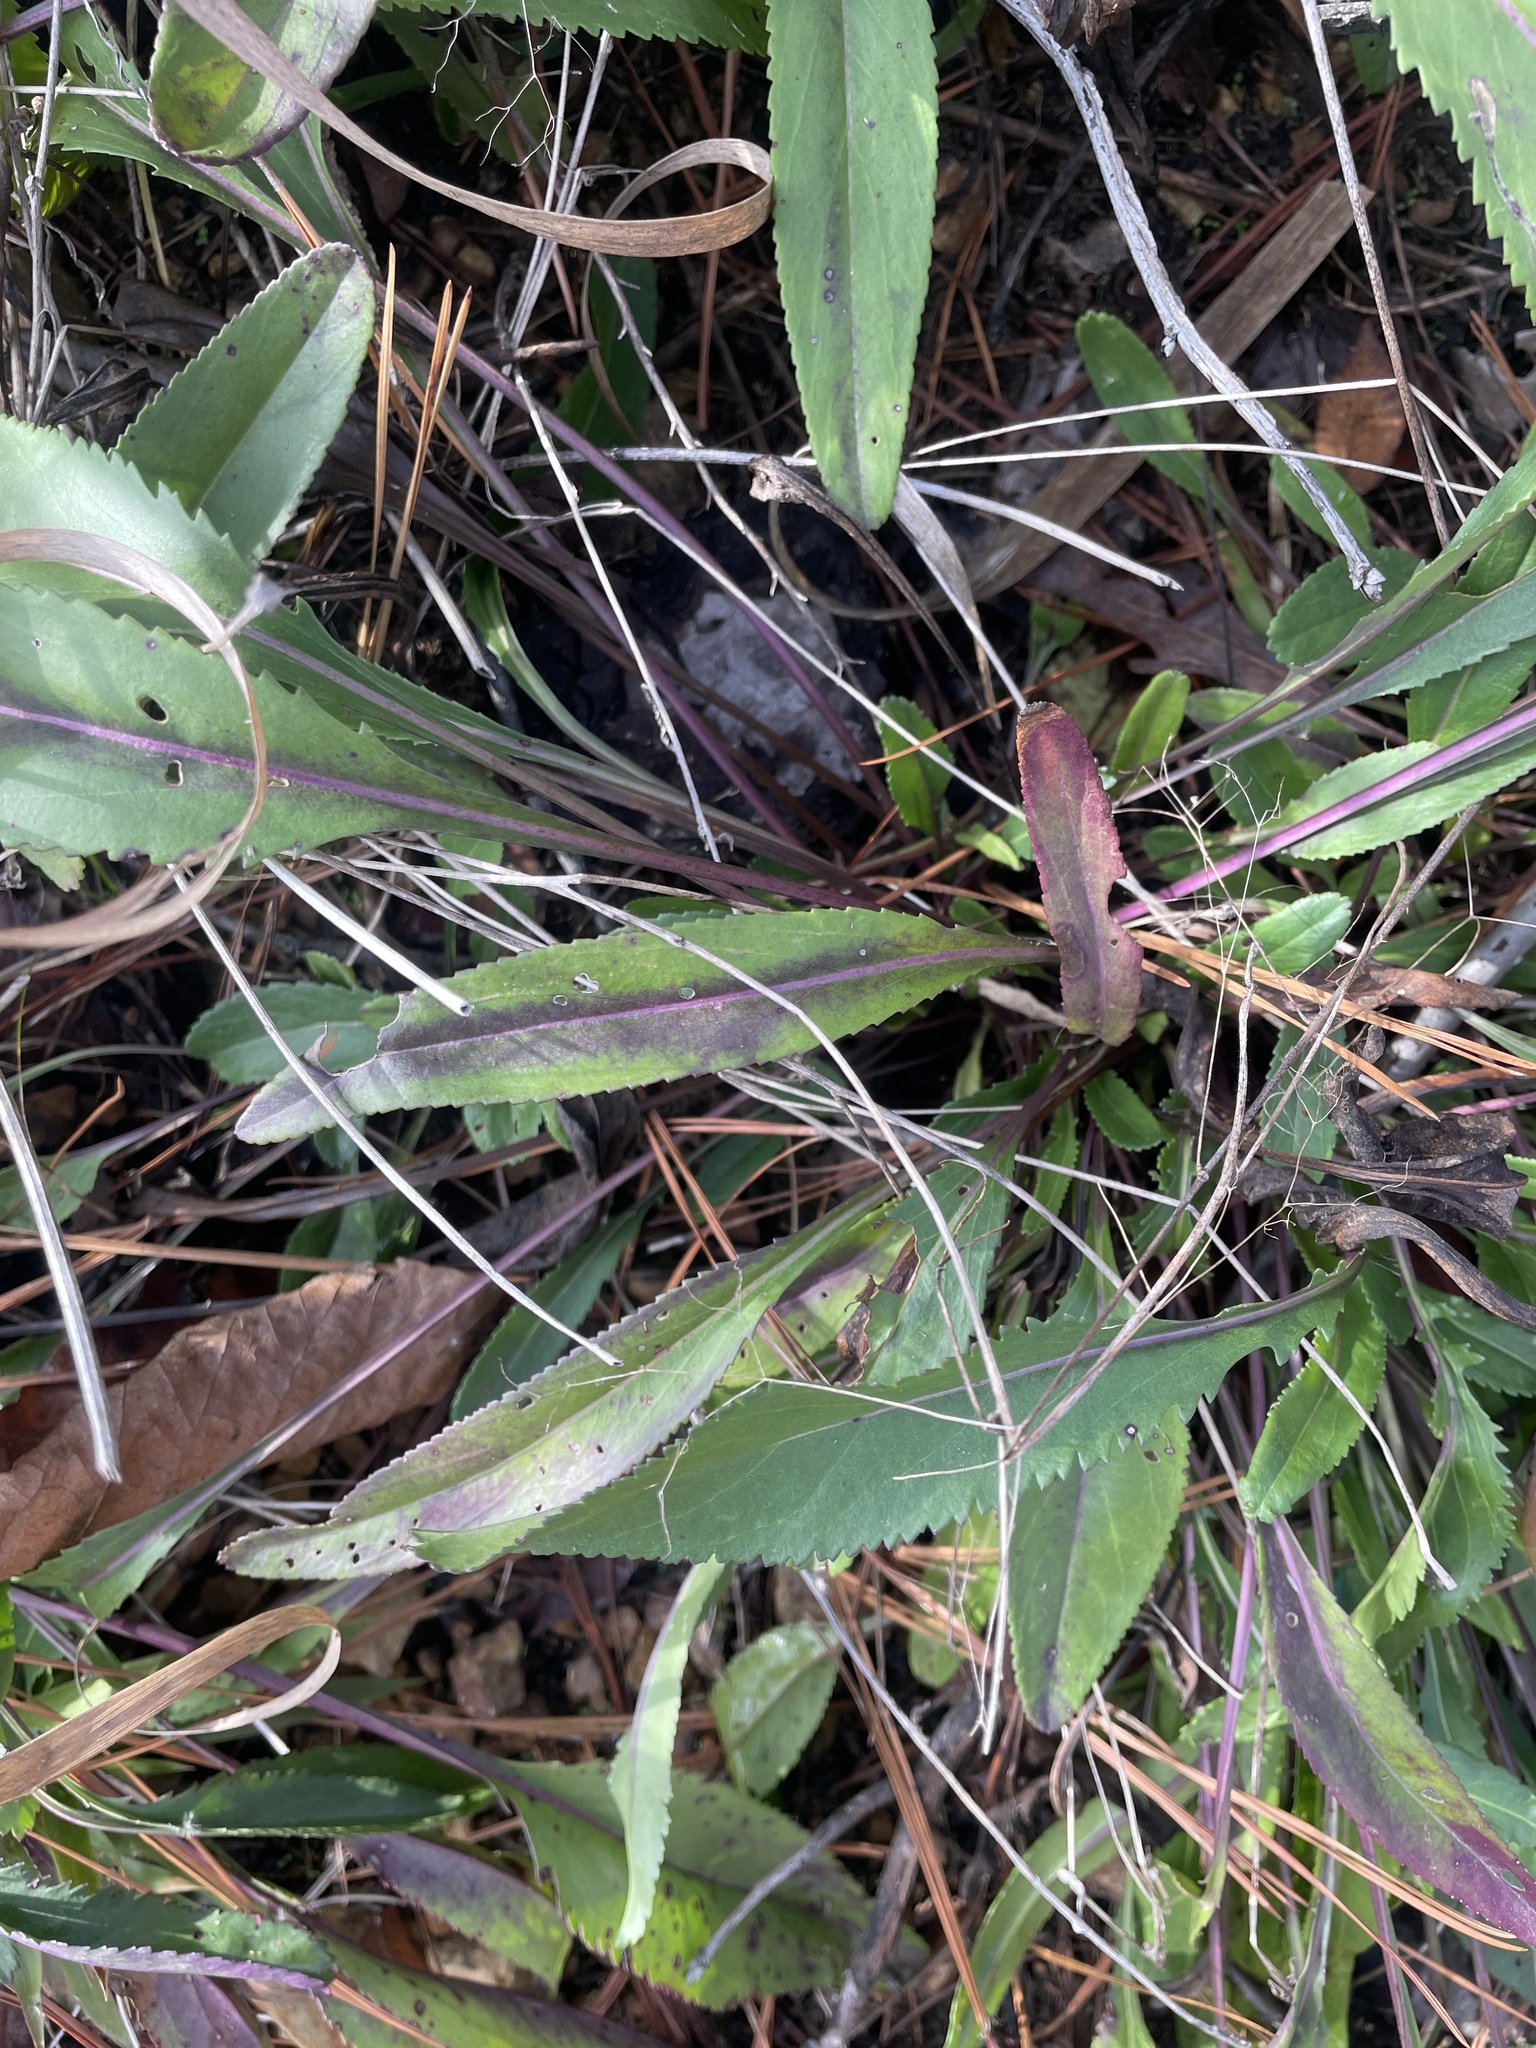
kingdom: Plantae
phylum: Tracheophyta
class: Magnoliopsida
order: Asterales
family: Asteraceae
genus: Packera
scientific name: Packera anonyma
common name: Small ragwort
